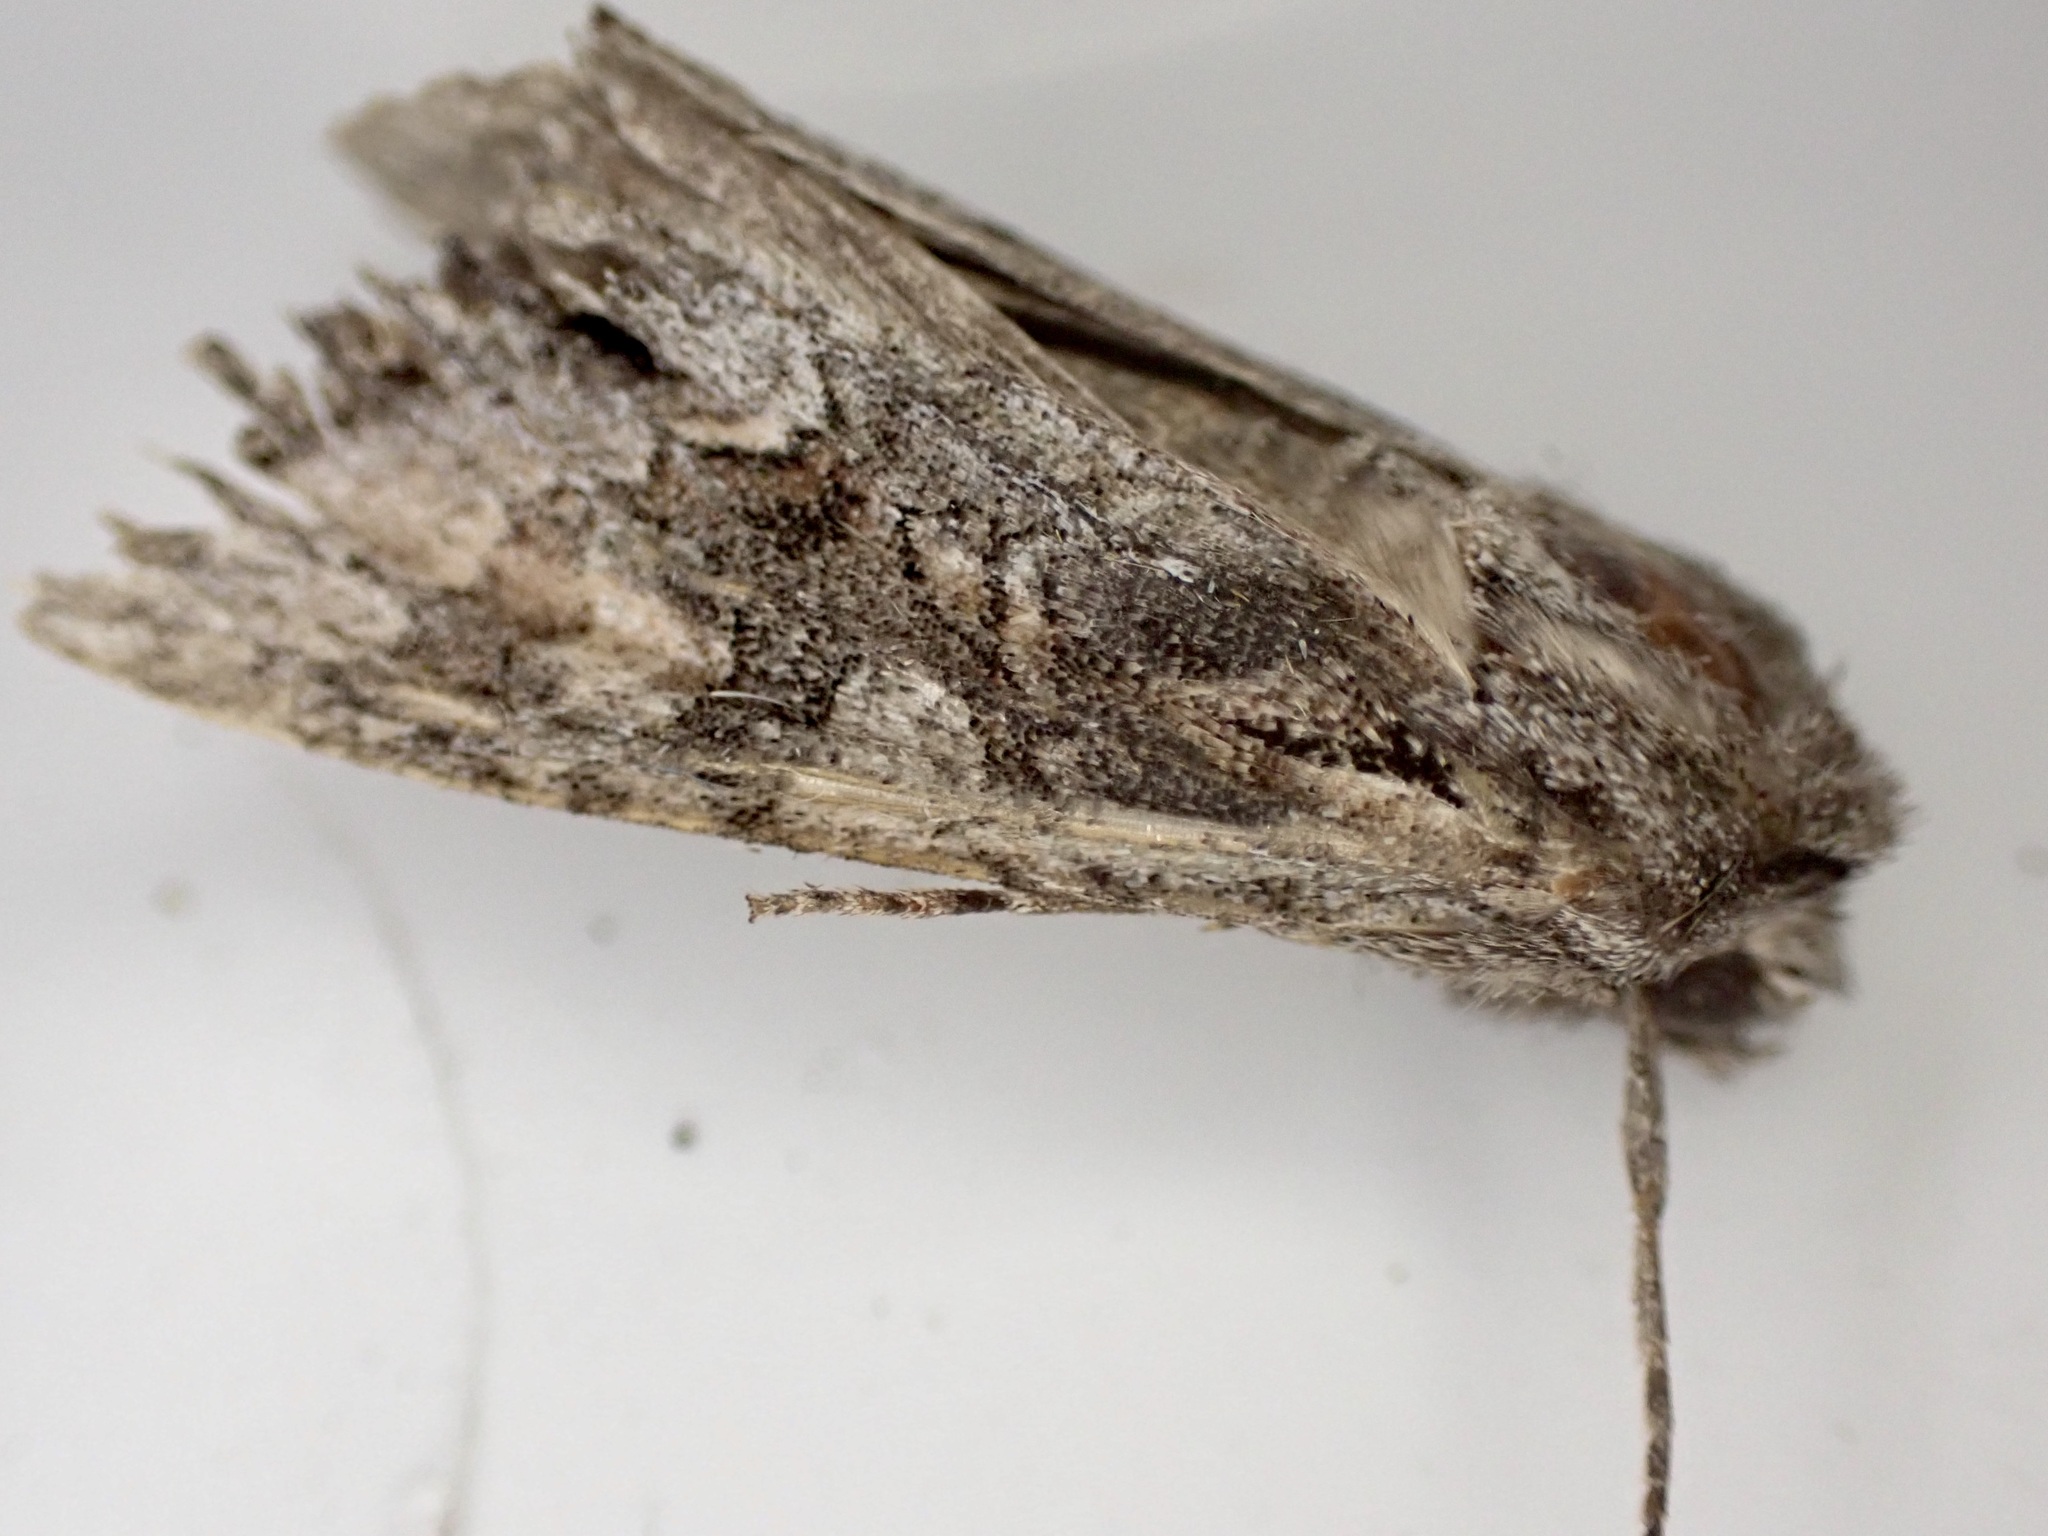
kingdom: Animalia
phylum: Arthropoda
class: Insecta
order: Lepidoptera
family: Noctuidae
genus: Ichneutica
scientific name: Ichneutica mutans
